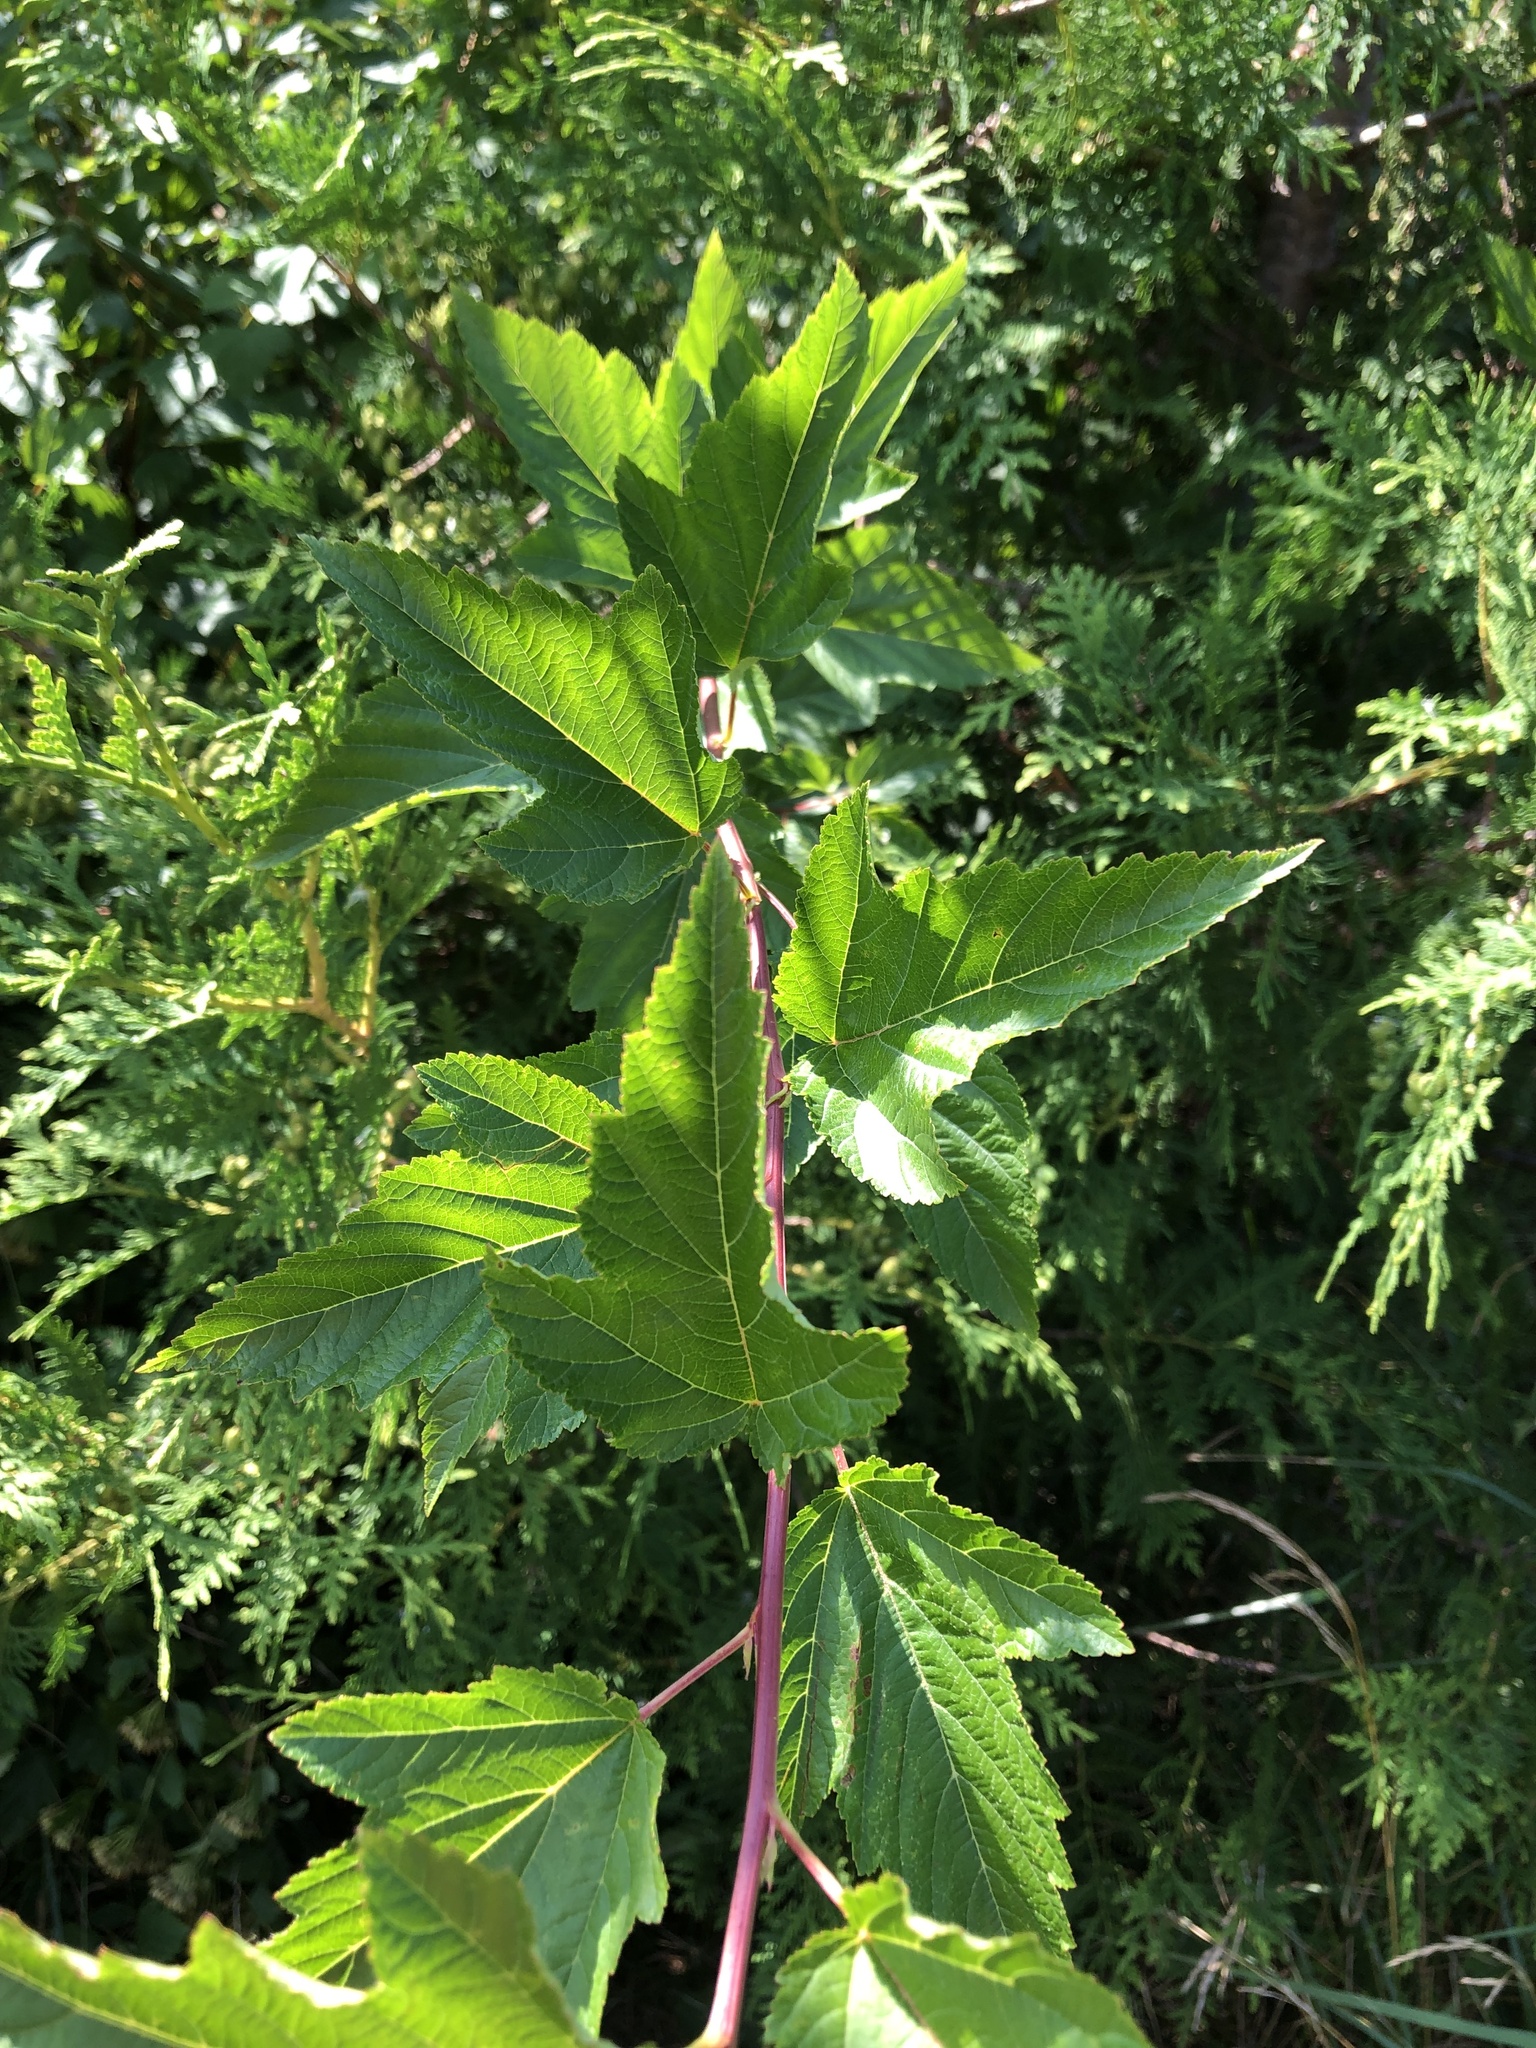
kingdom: Plantae
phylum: Tracheophyta
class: Magnoliopsida
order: Rosales
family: Rosaceae
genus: Physocarpus
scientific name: Physocarpus opulifolius
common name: Ninebark
